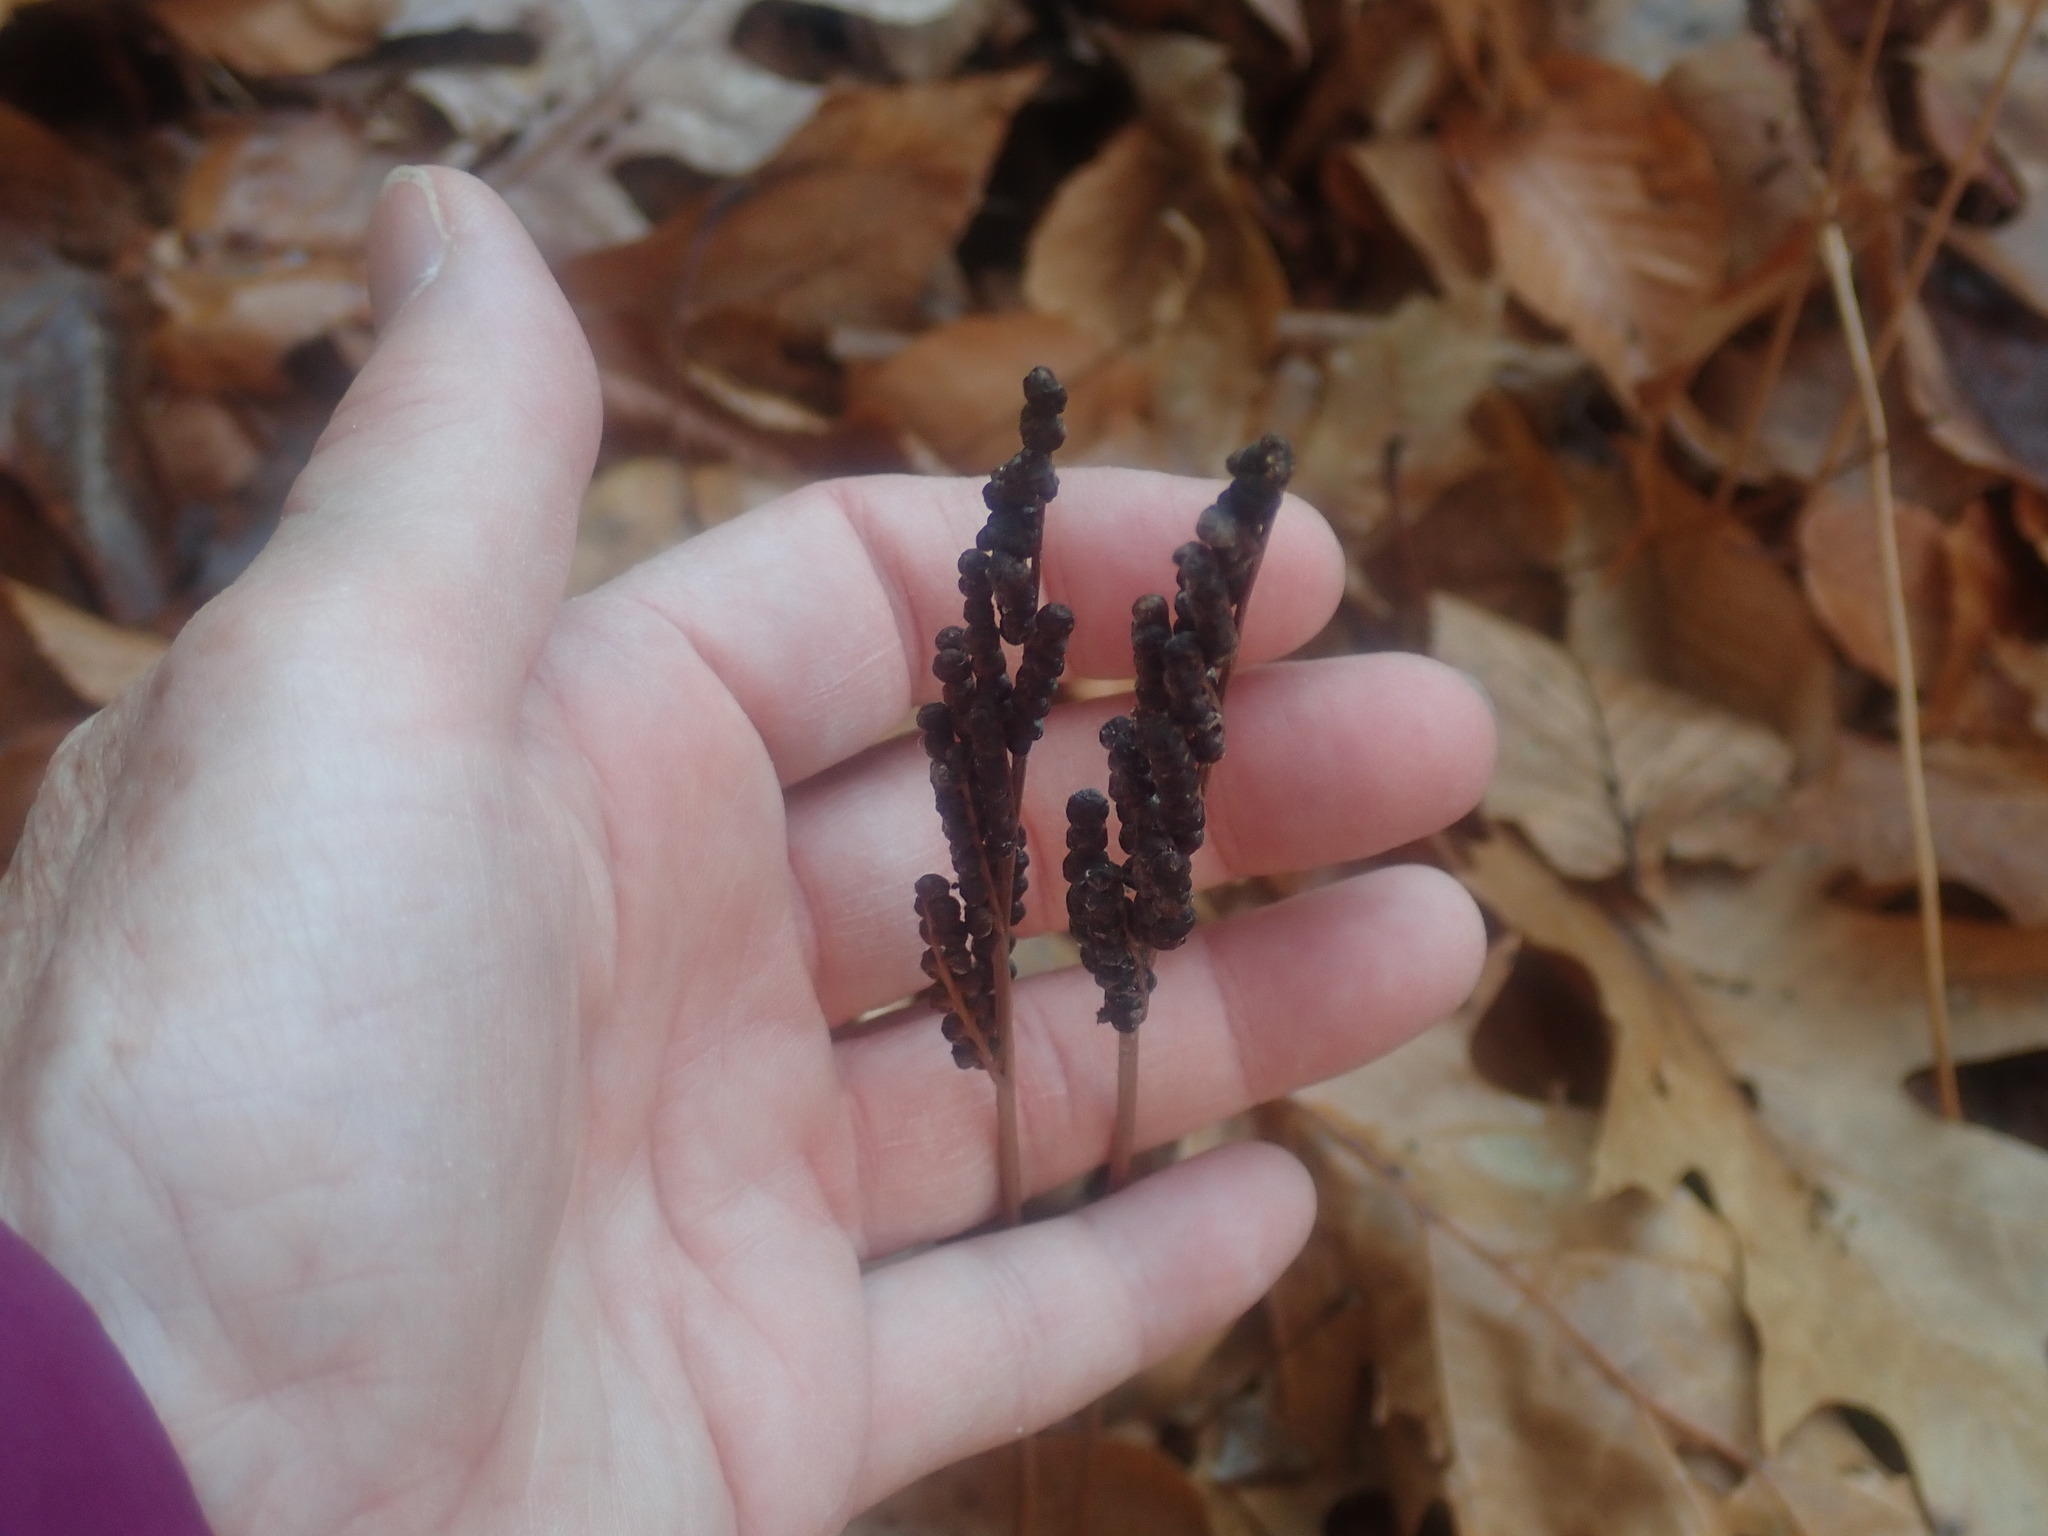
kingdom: Plantae
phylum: Tracheophyta
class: Polypodiopsida
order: Polypodiales
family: Onocleaceae
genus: Onoclea
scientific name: Onoclea sensibilis
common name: Sensitive fern
